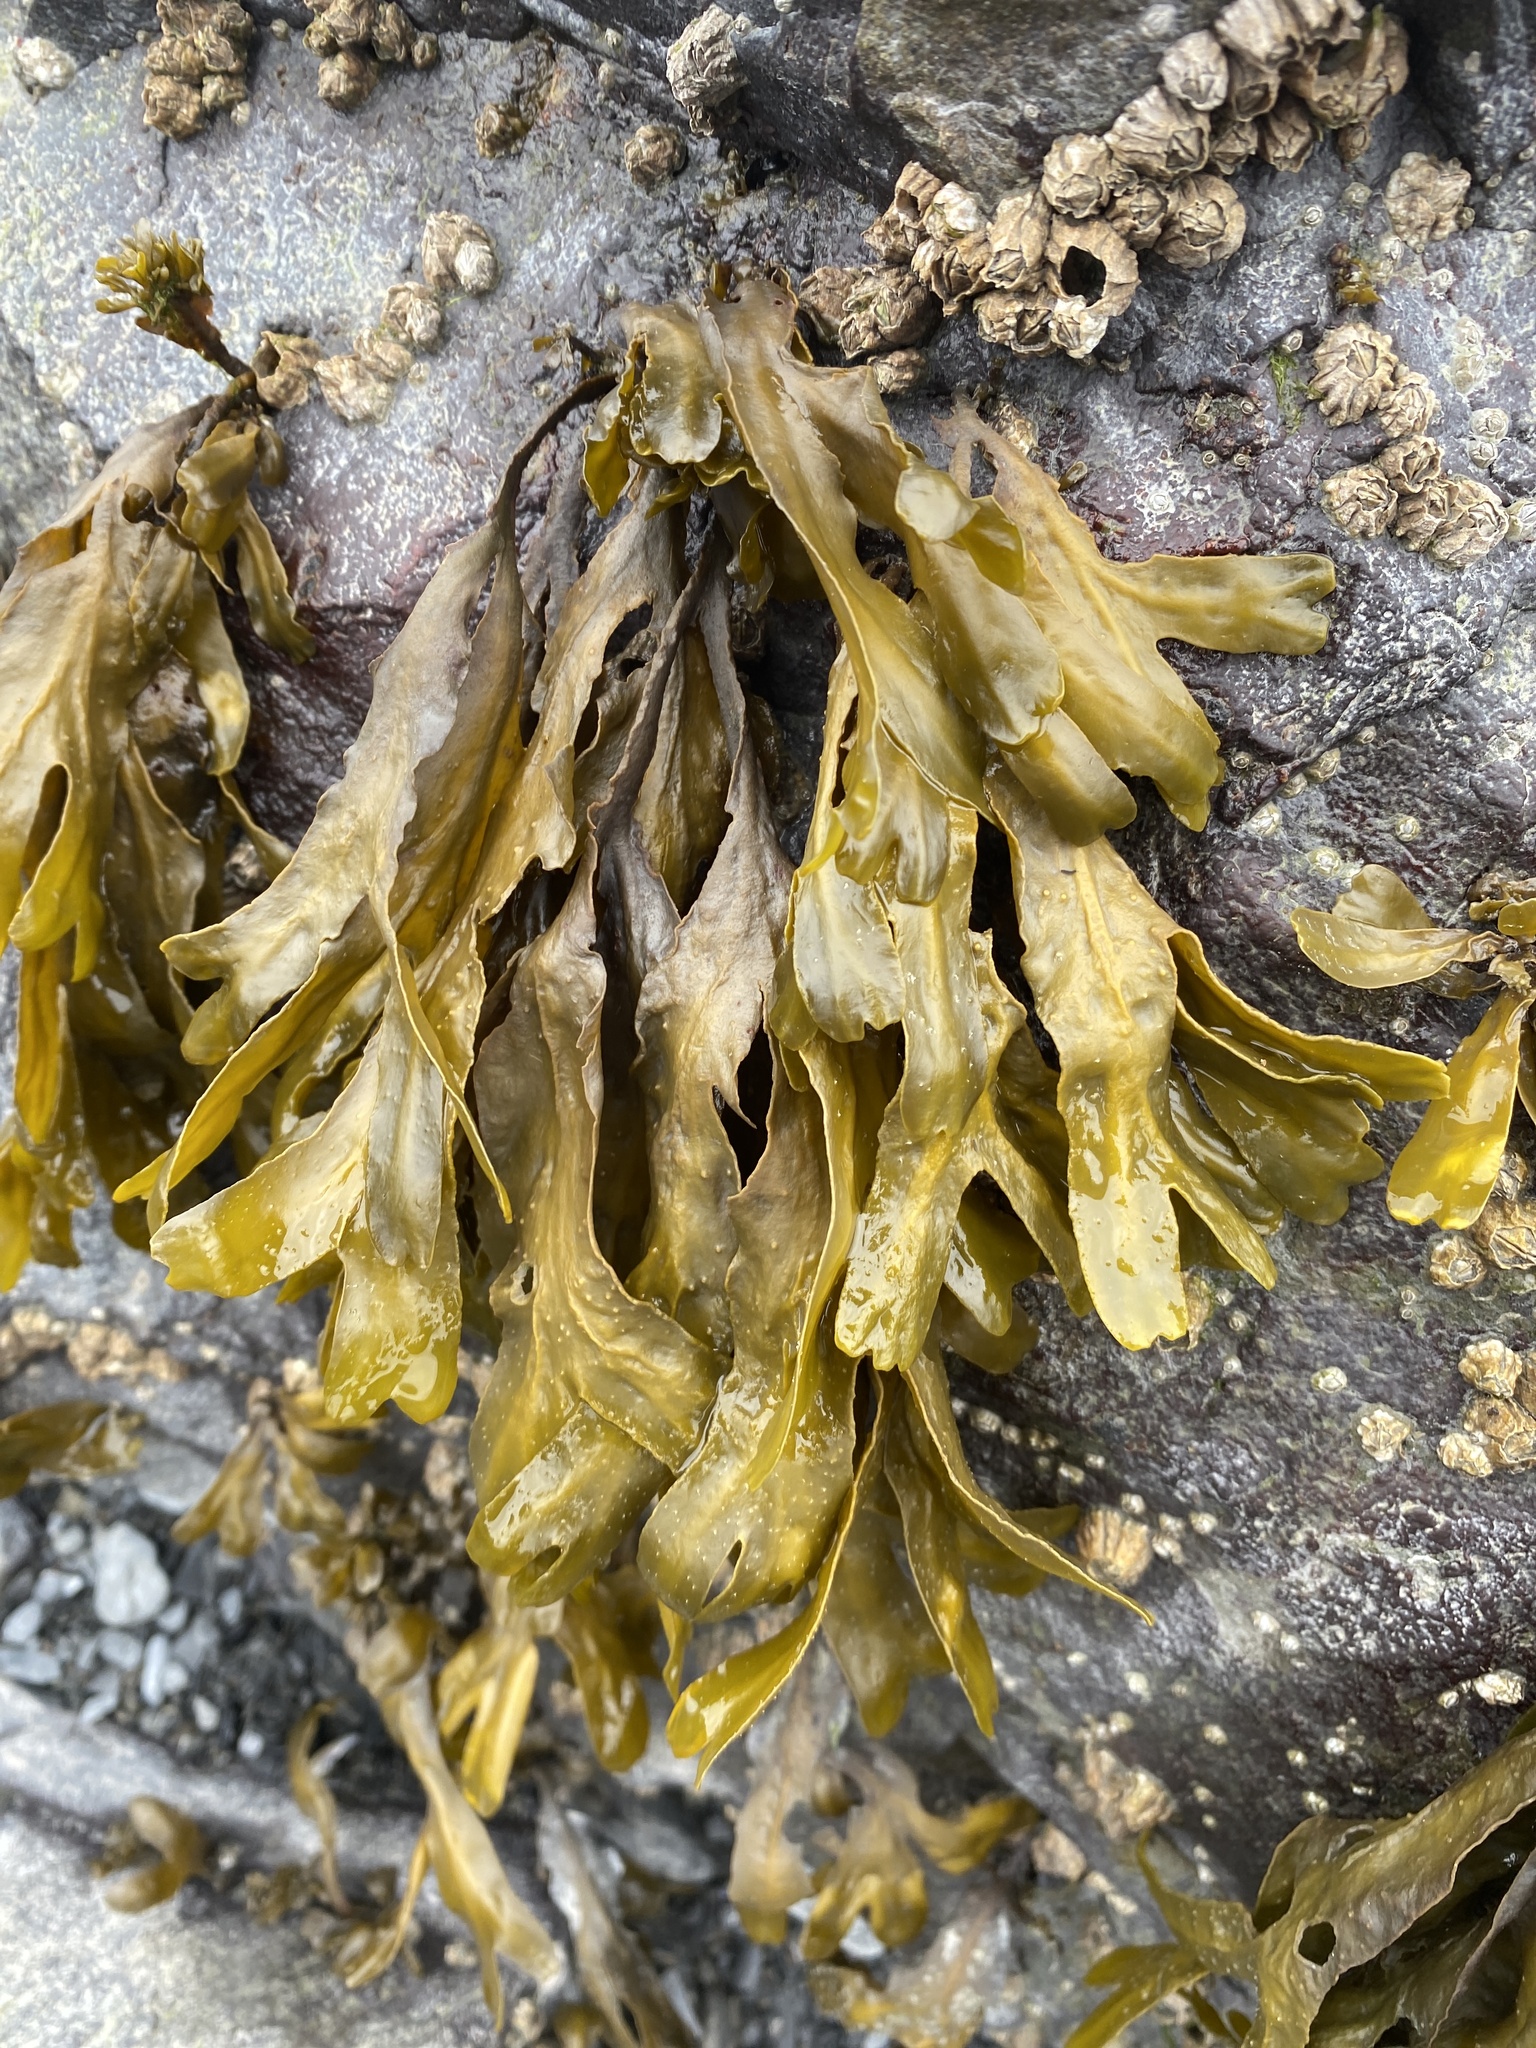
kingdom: Chromista
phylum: Ochrophyta
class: Phaeophyceae
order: Fucales
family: Fucaceae
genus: Fucus
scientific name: Fucus distichus
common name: Rockweed
